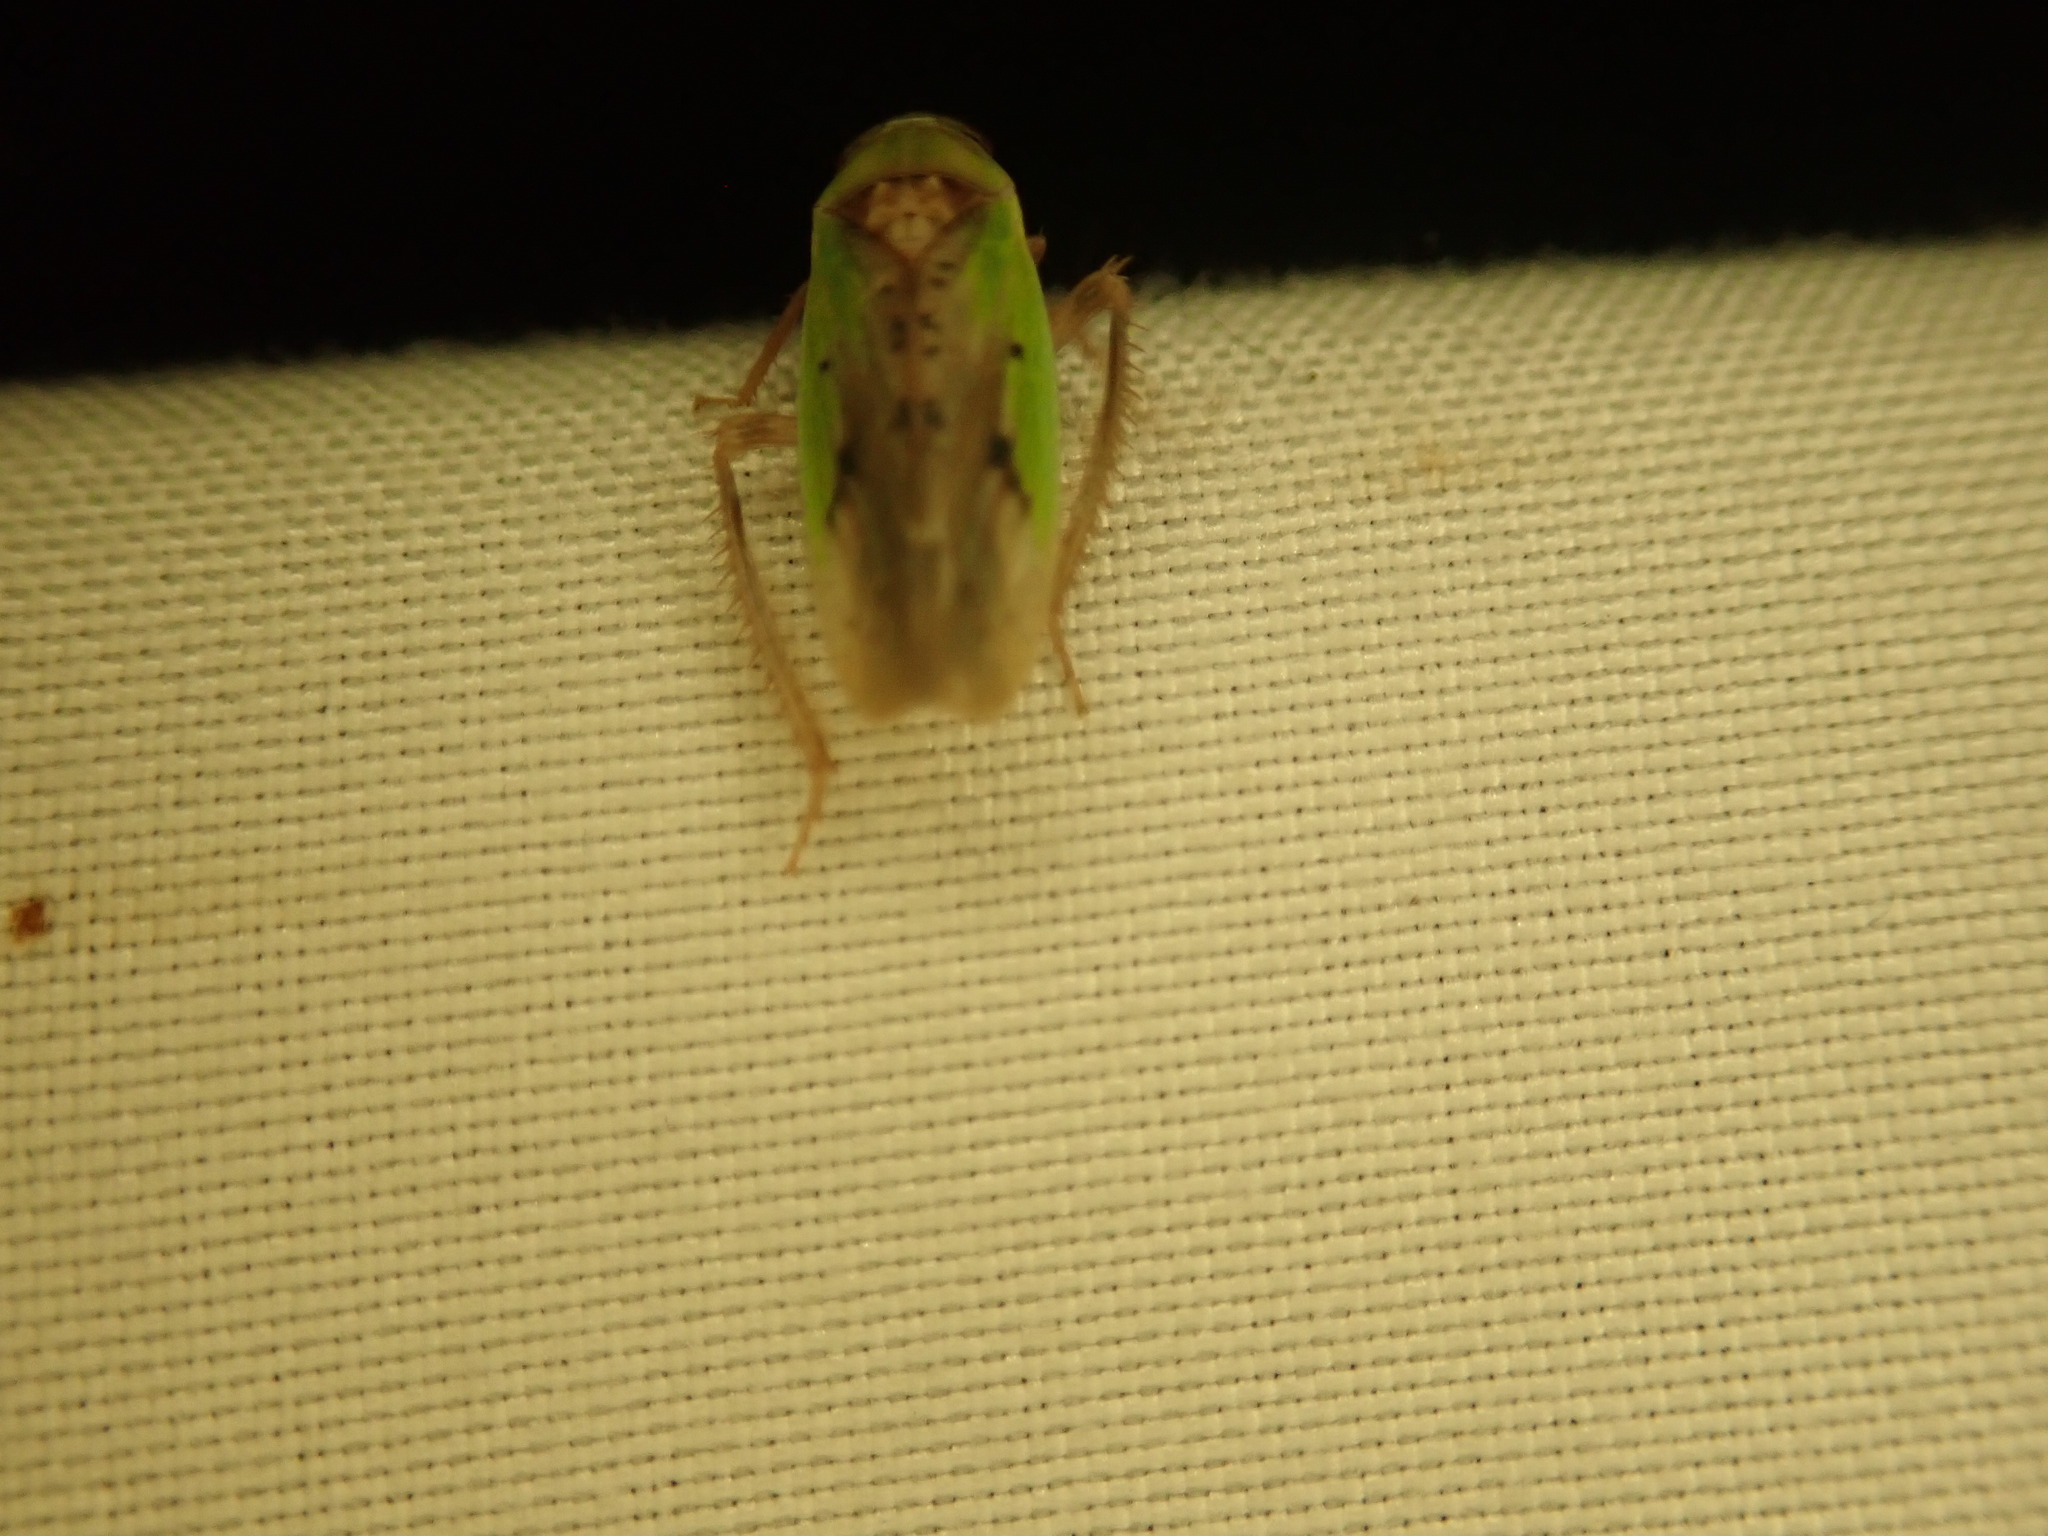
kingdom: Animalia
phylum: Arthropoda
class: Insecta
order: Hemiptera
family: Cicadellidae
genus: Ponana
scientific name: Ponana pectoralis
